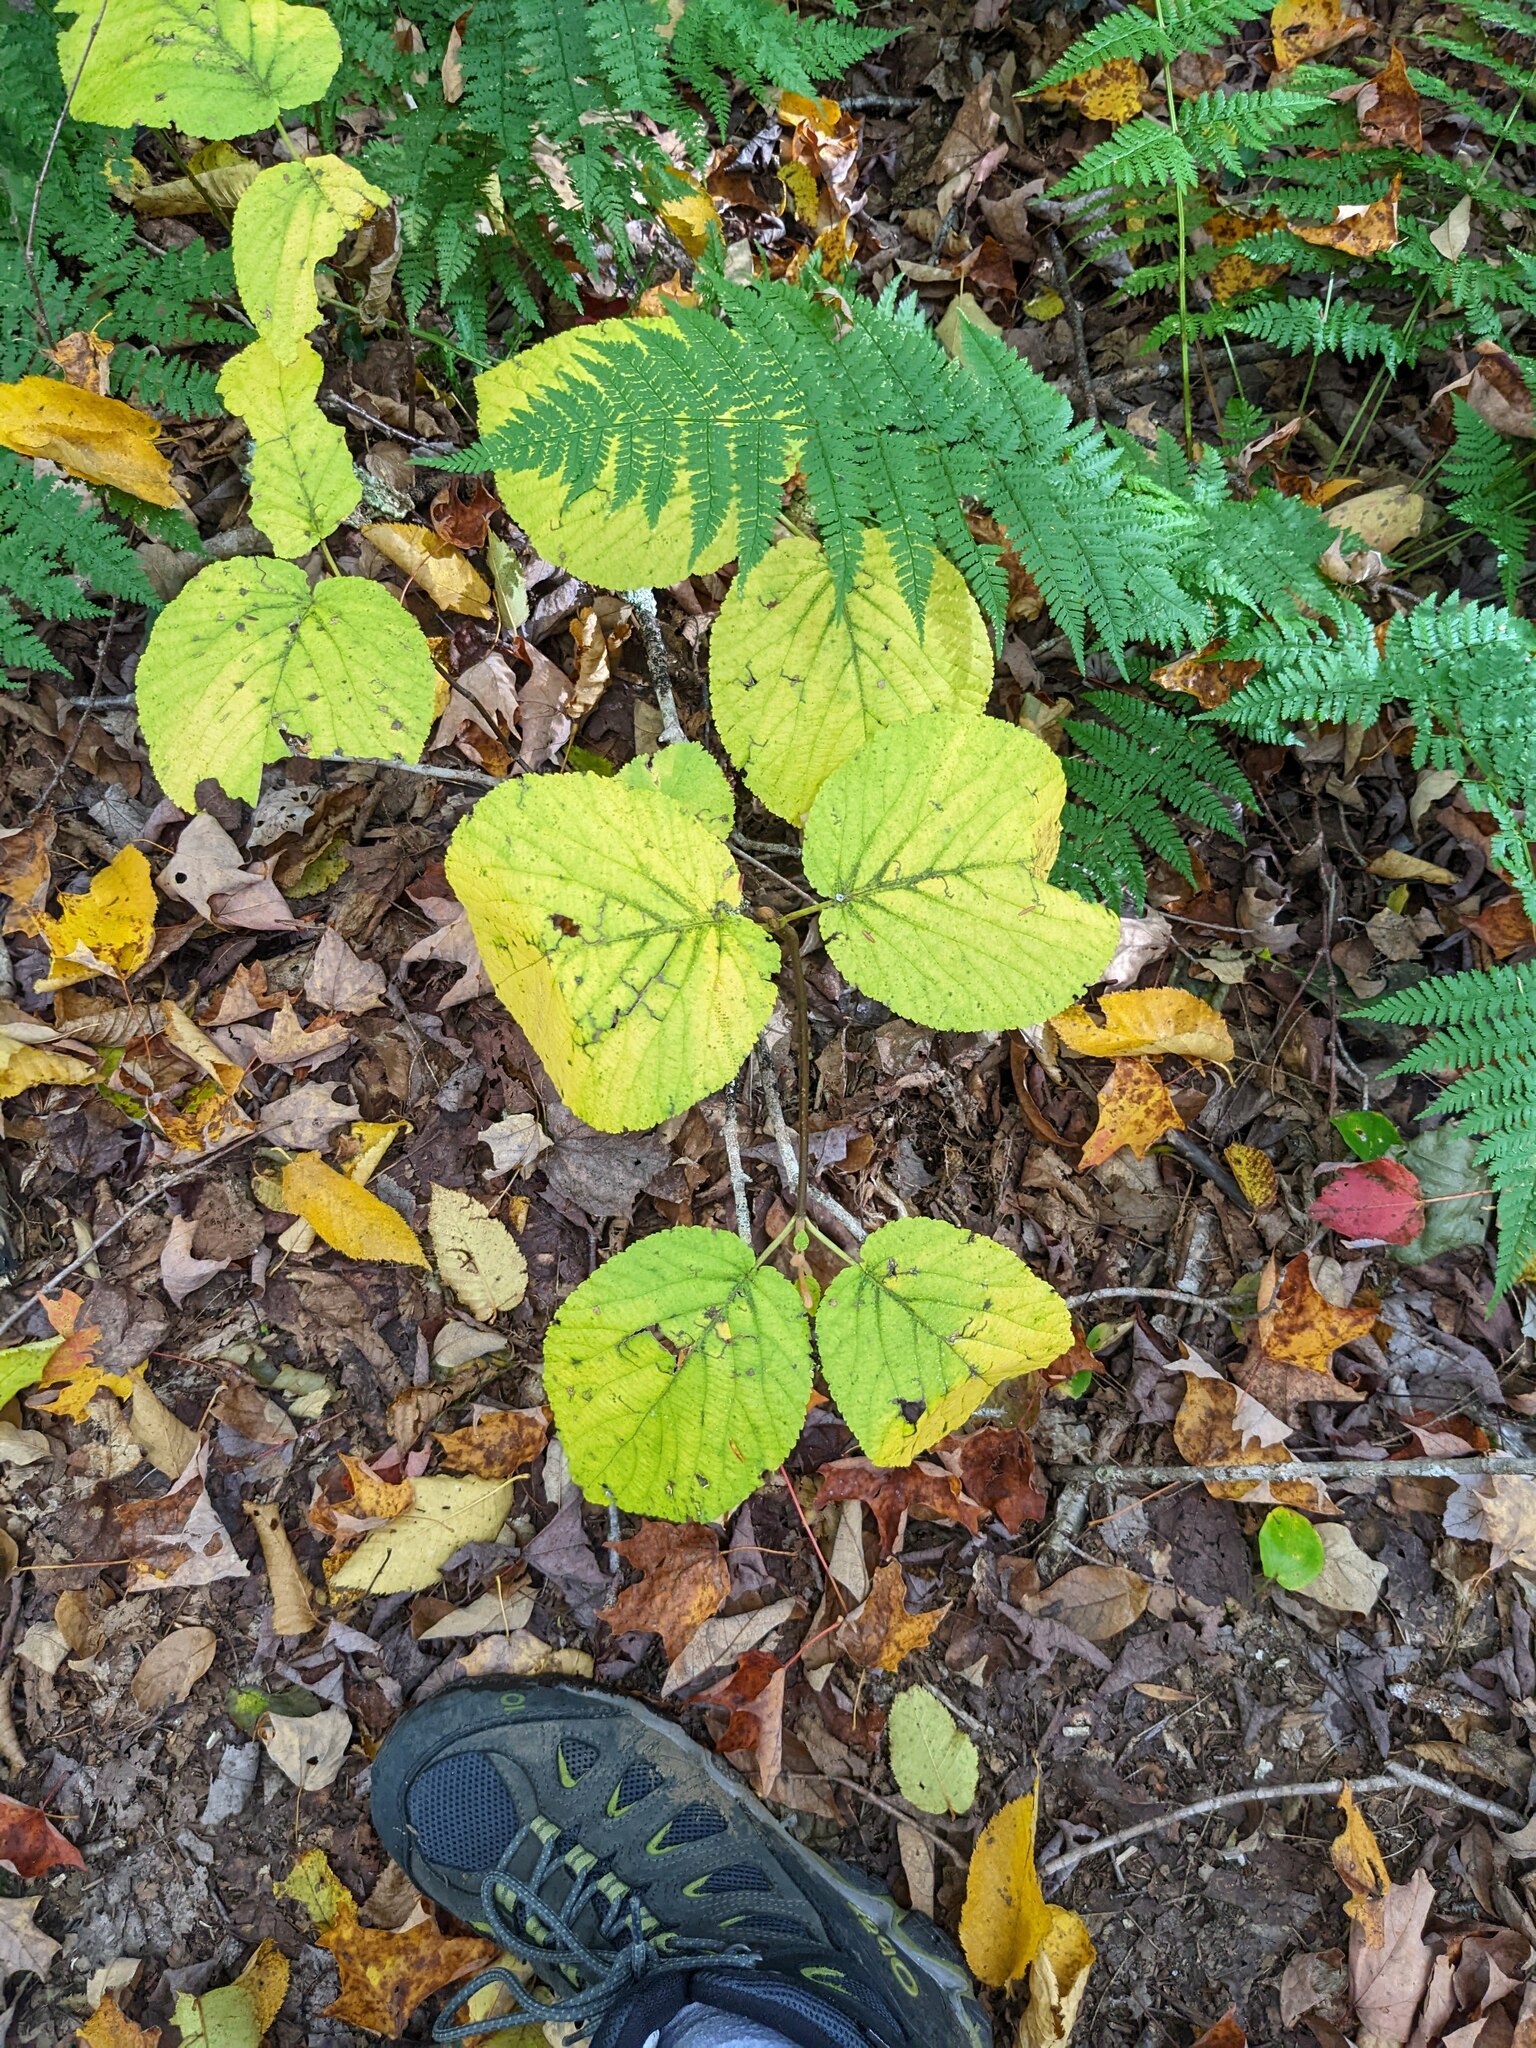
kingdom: Plantae
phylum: Tracheophyta
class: Magnoliopsida
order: Dipsacales
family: Viburnaceae
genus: Viburnum
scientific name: Viburnum lantanoides
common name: Hobblebush
